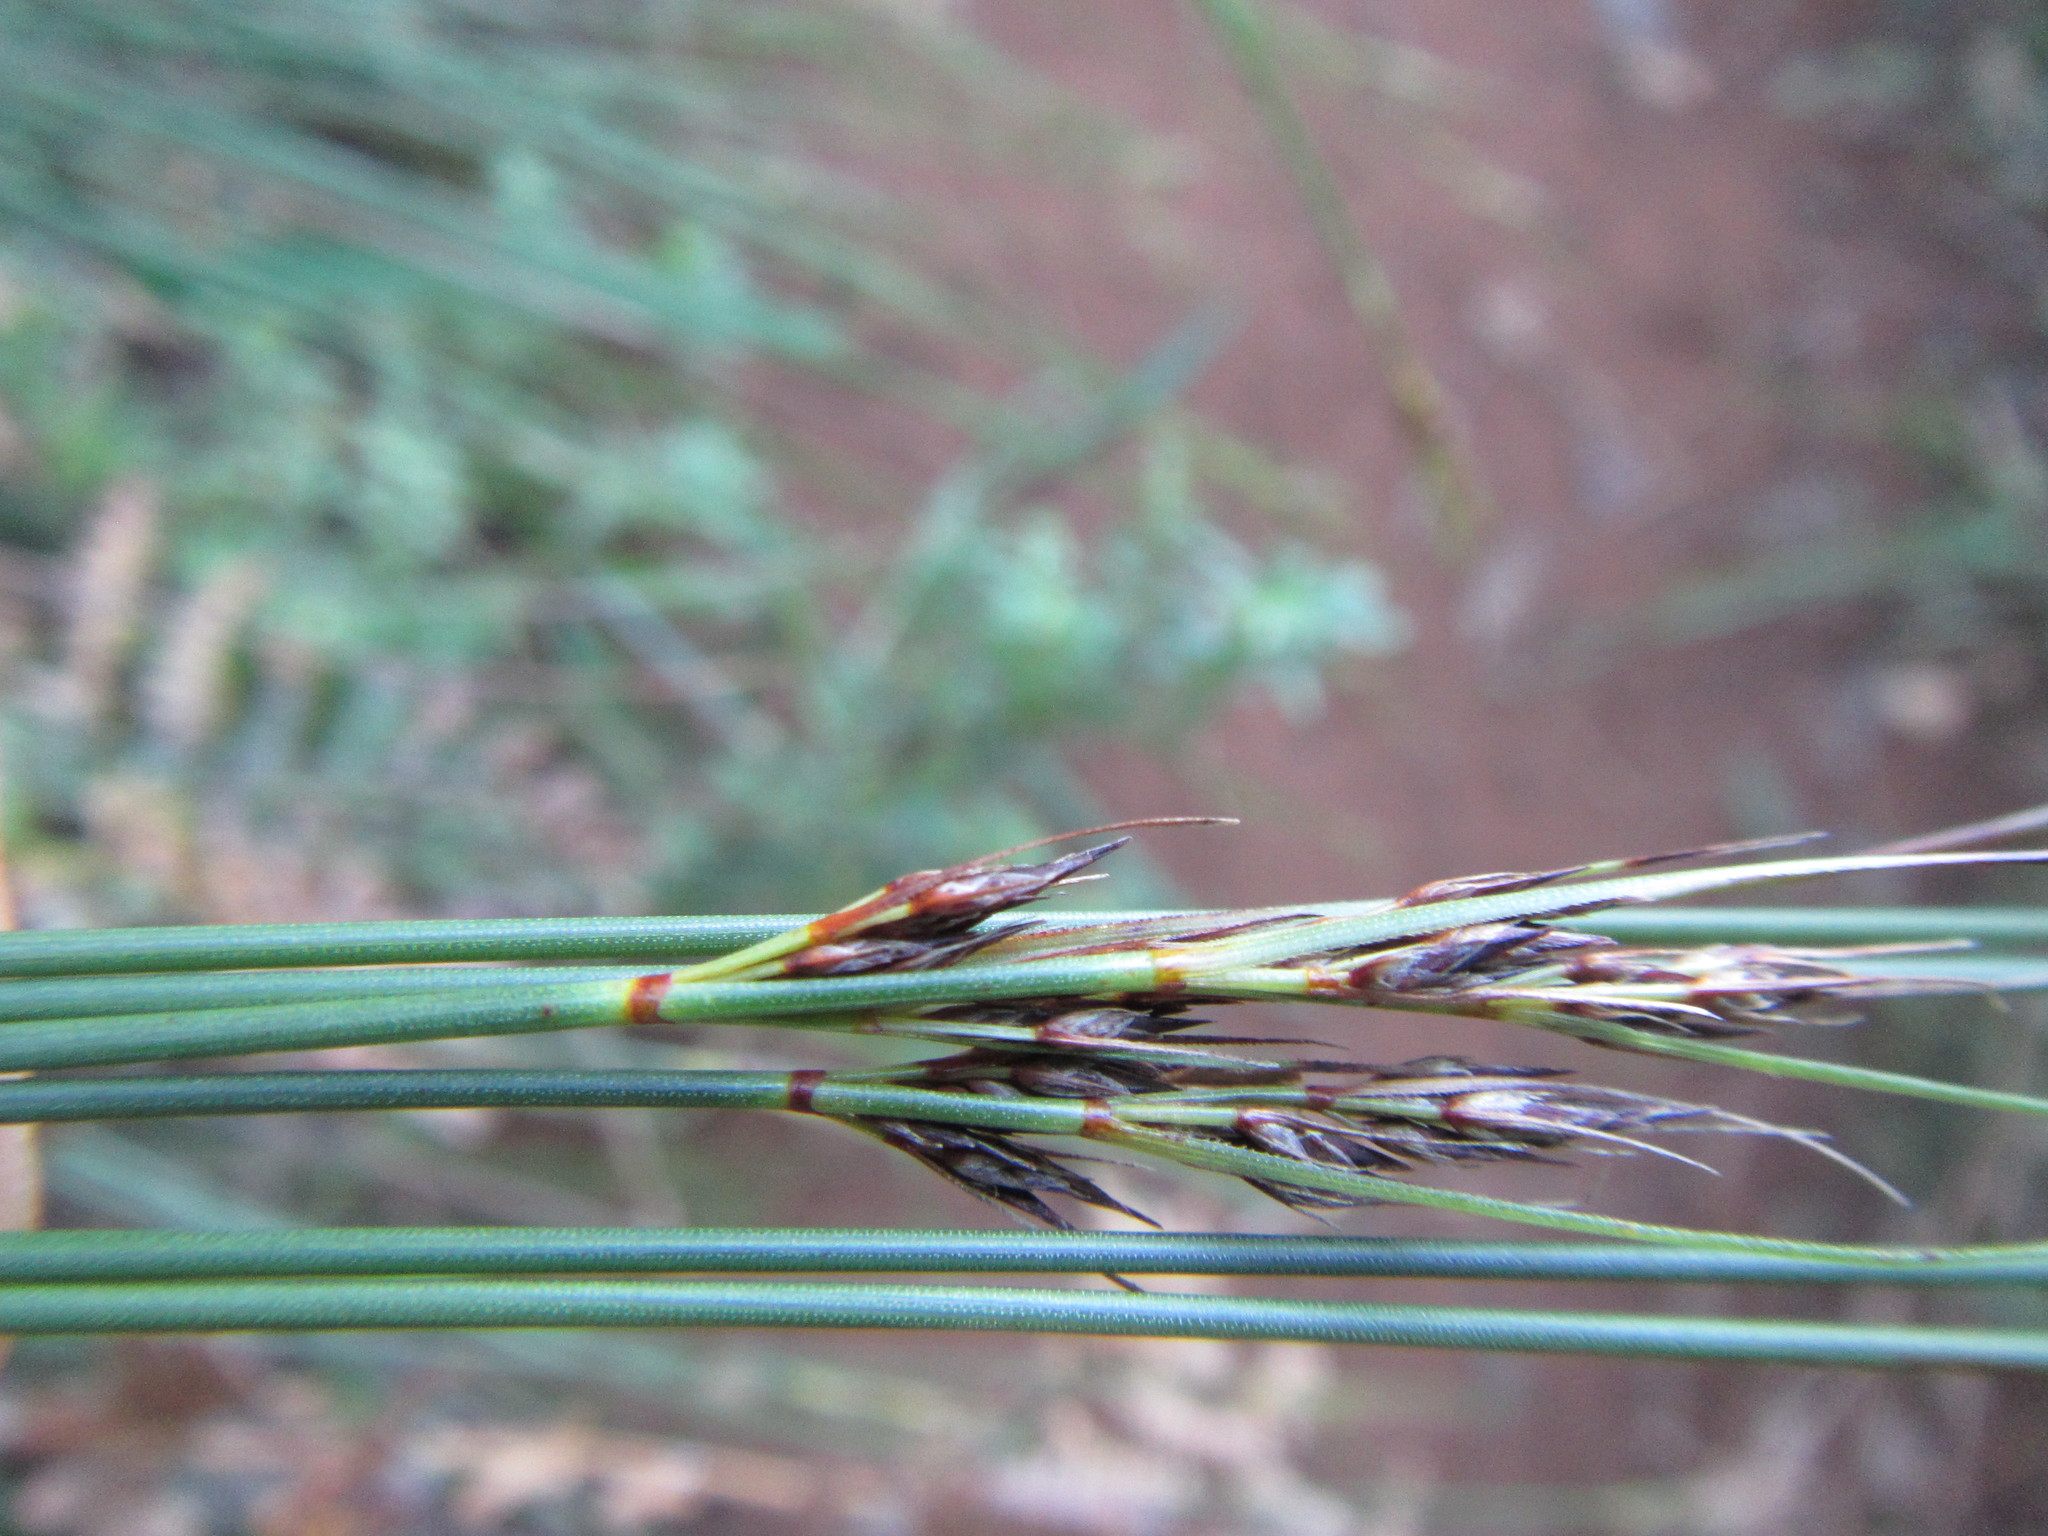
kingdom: Plantae
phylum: Tracheophyta
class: Liliopsida
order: Poales
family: Cyperaceae
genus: Schoenus
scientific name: Schoenus cuspidatus
